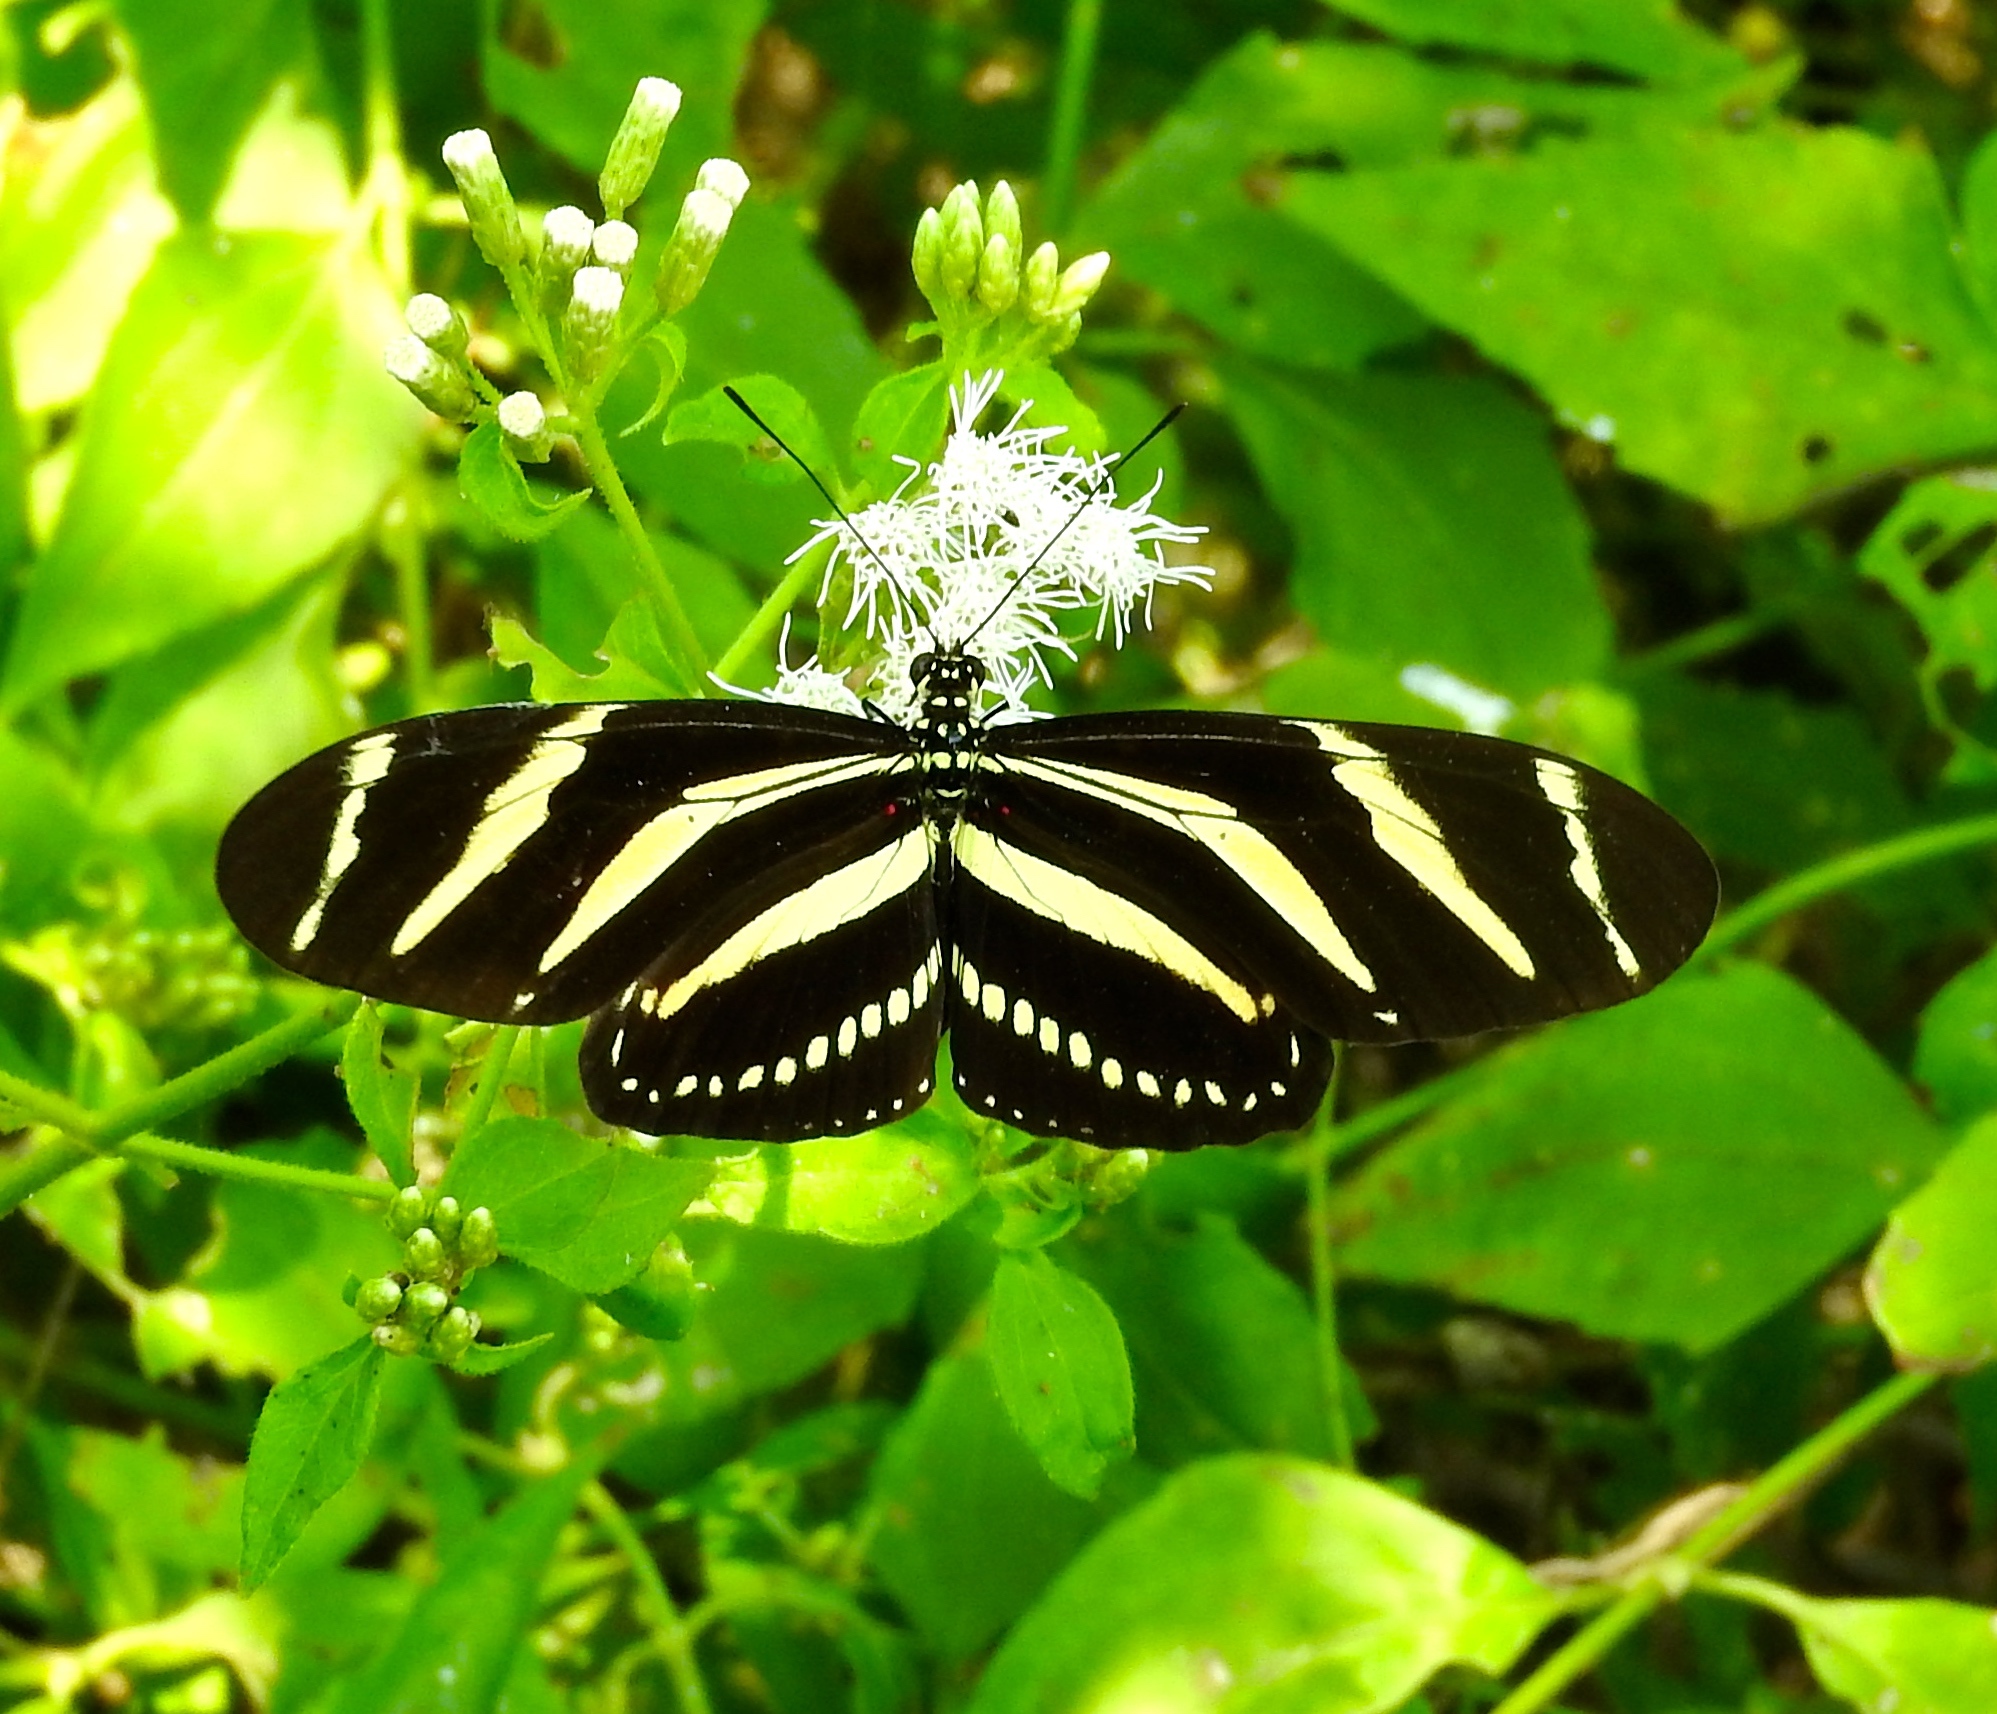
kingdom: Animalia
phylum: Arthropoda
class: Insecta
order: Lepidoptera
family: Nymphalidae
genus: Heliconius
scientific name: Heliconius charithonia
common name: Zebra long wing
